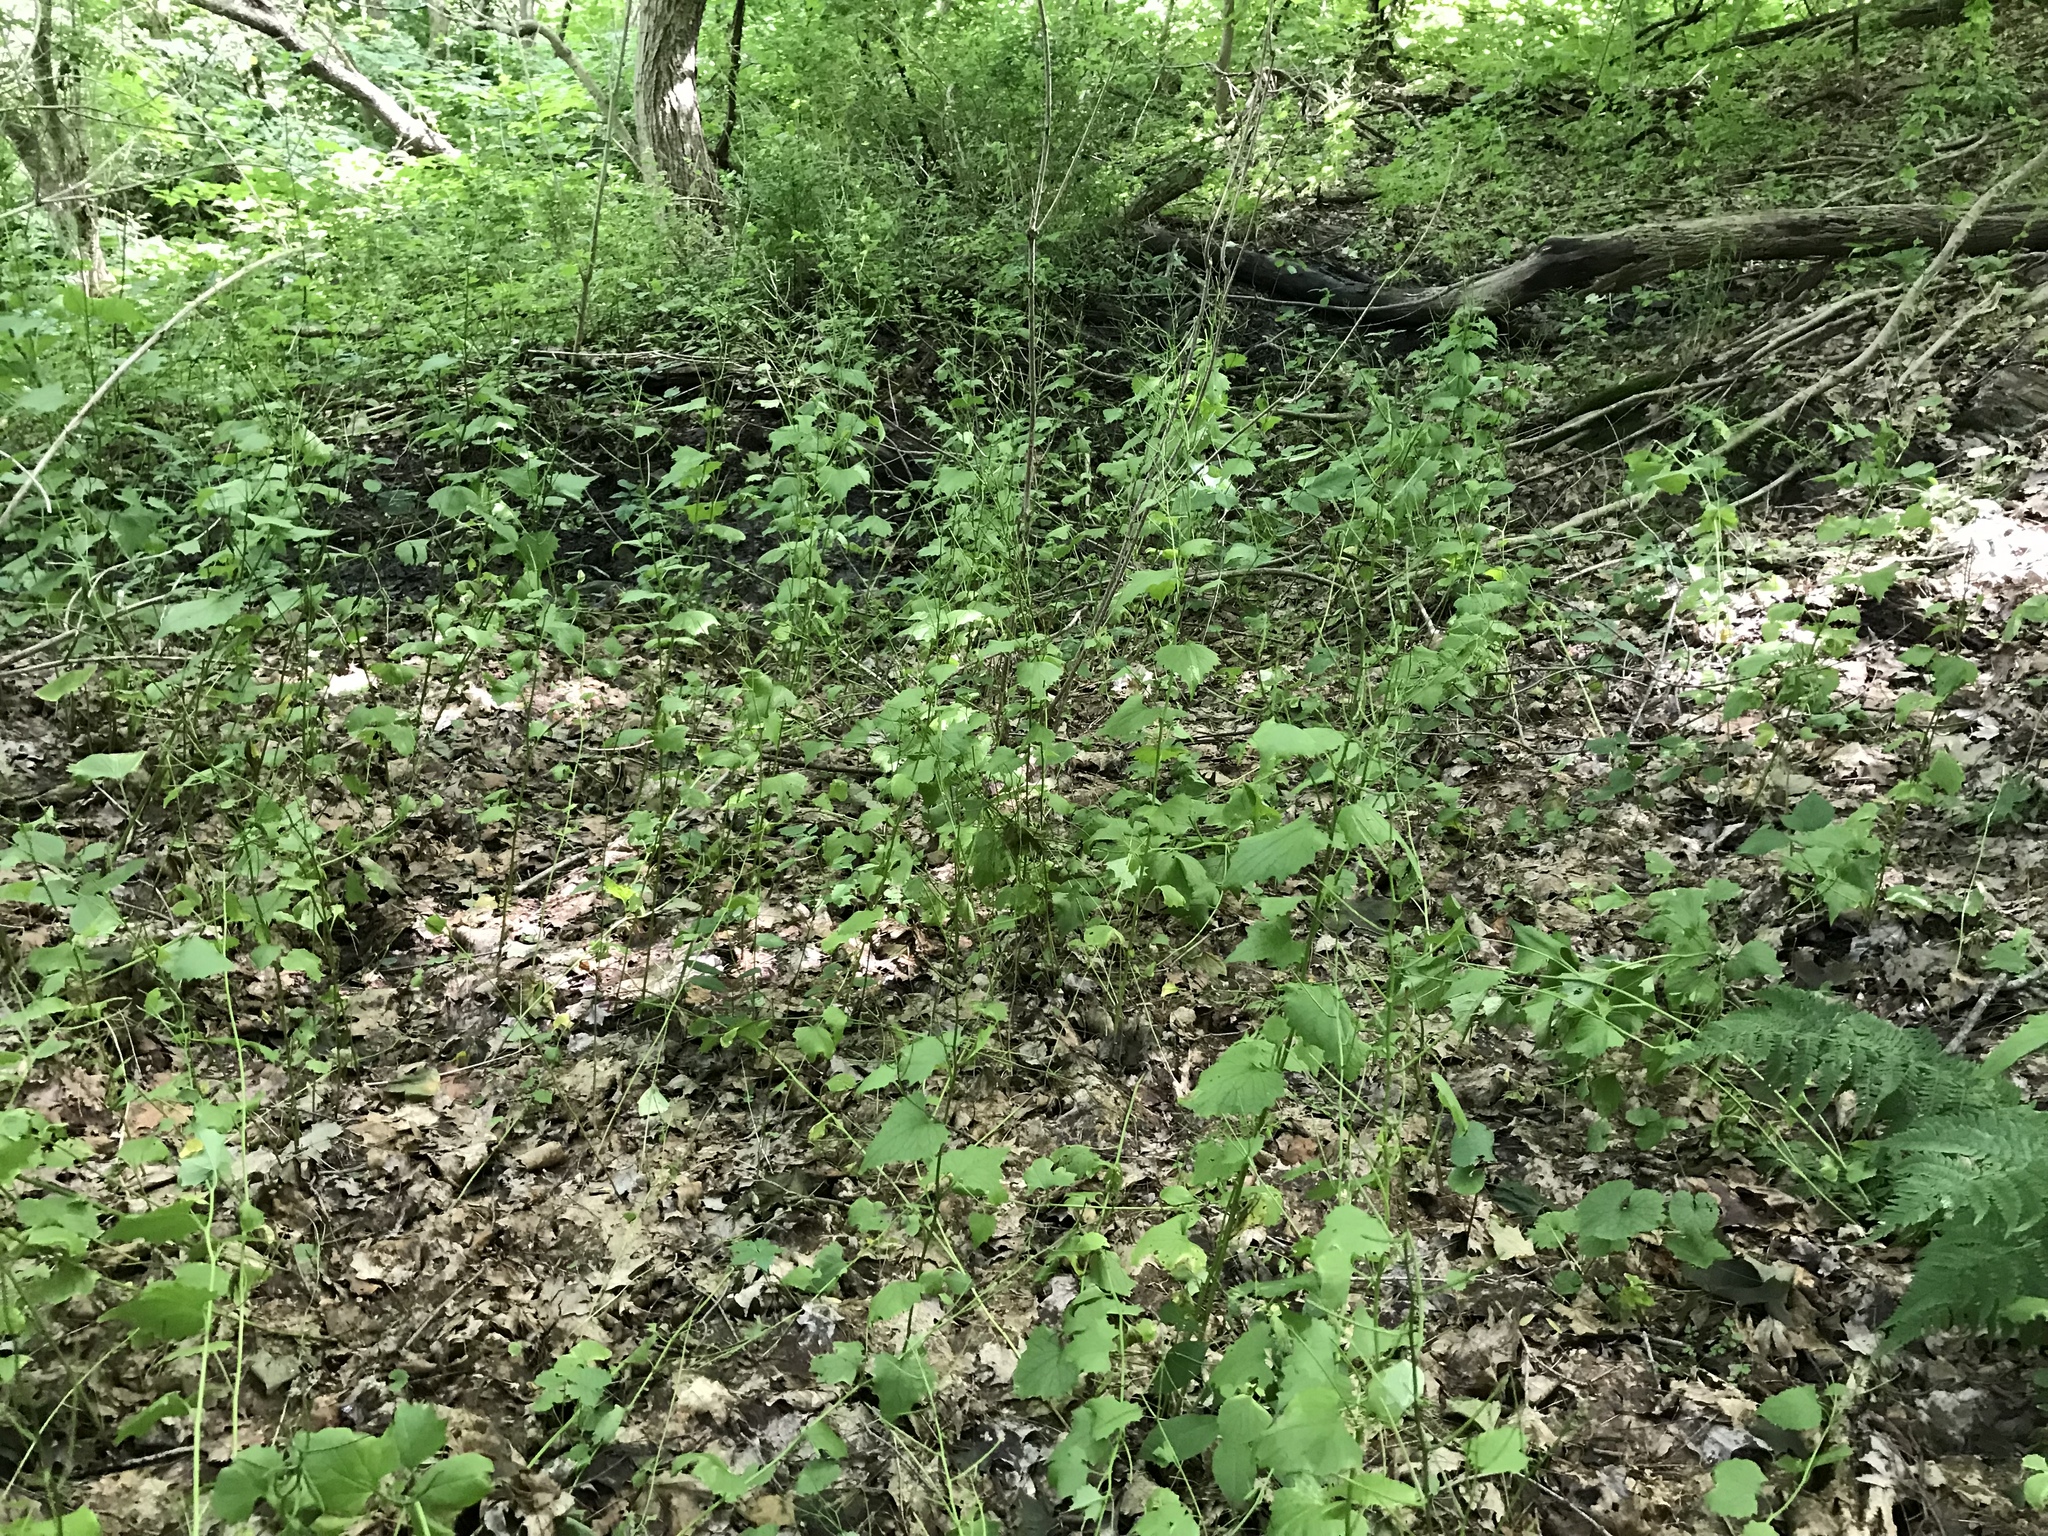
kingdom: Plantae
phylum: Tracheophyta
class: Magnoliopsida
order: Brassicales
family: Brassicaceae
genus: Alliaria
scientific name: Alliaria petiolata
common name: Garlic mustard
